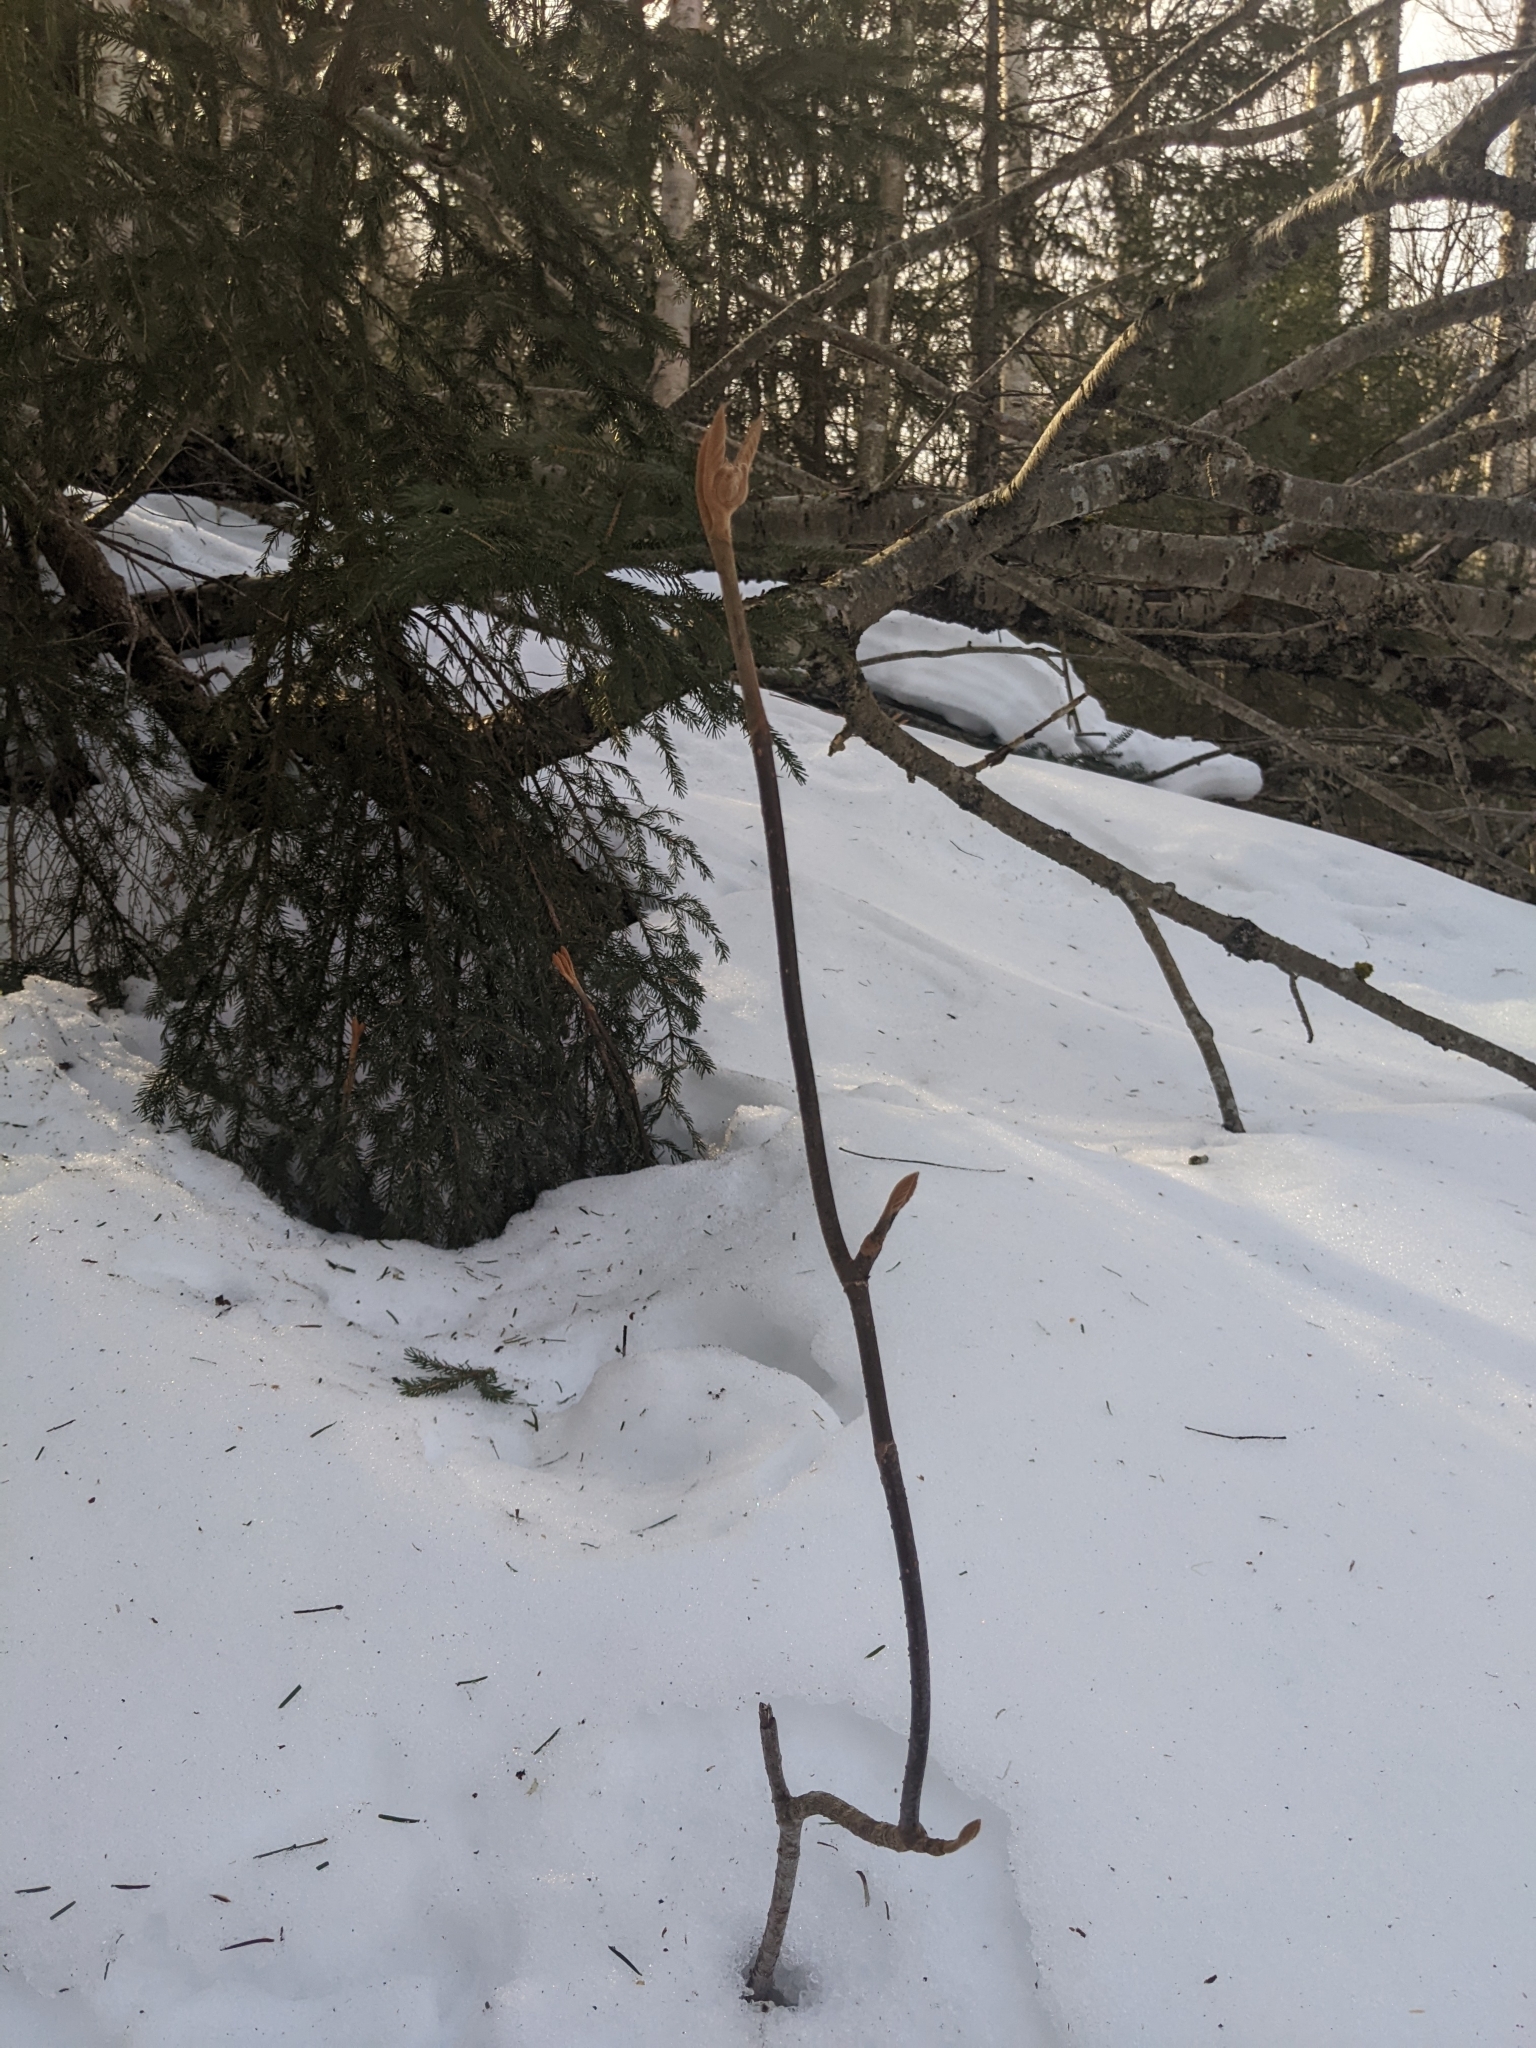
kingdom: Plantae
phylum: Tracheophyta
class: Magnoliopsida
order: Dipsacales
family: Viburnaceae
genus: Viburnum
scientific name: Viburnum lantanoides
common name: Hobblebush
